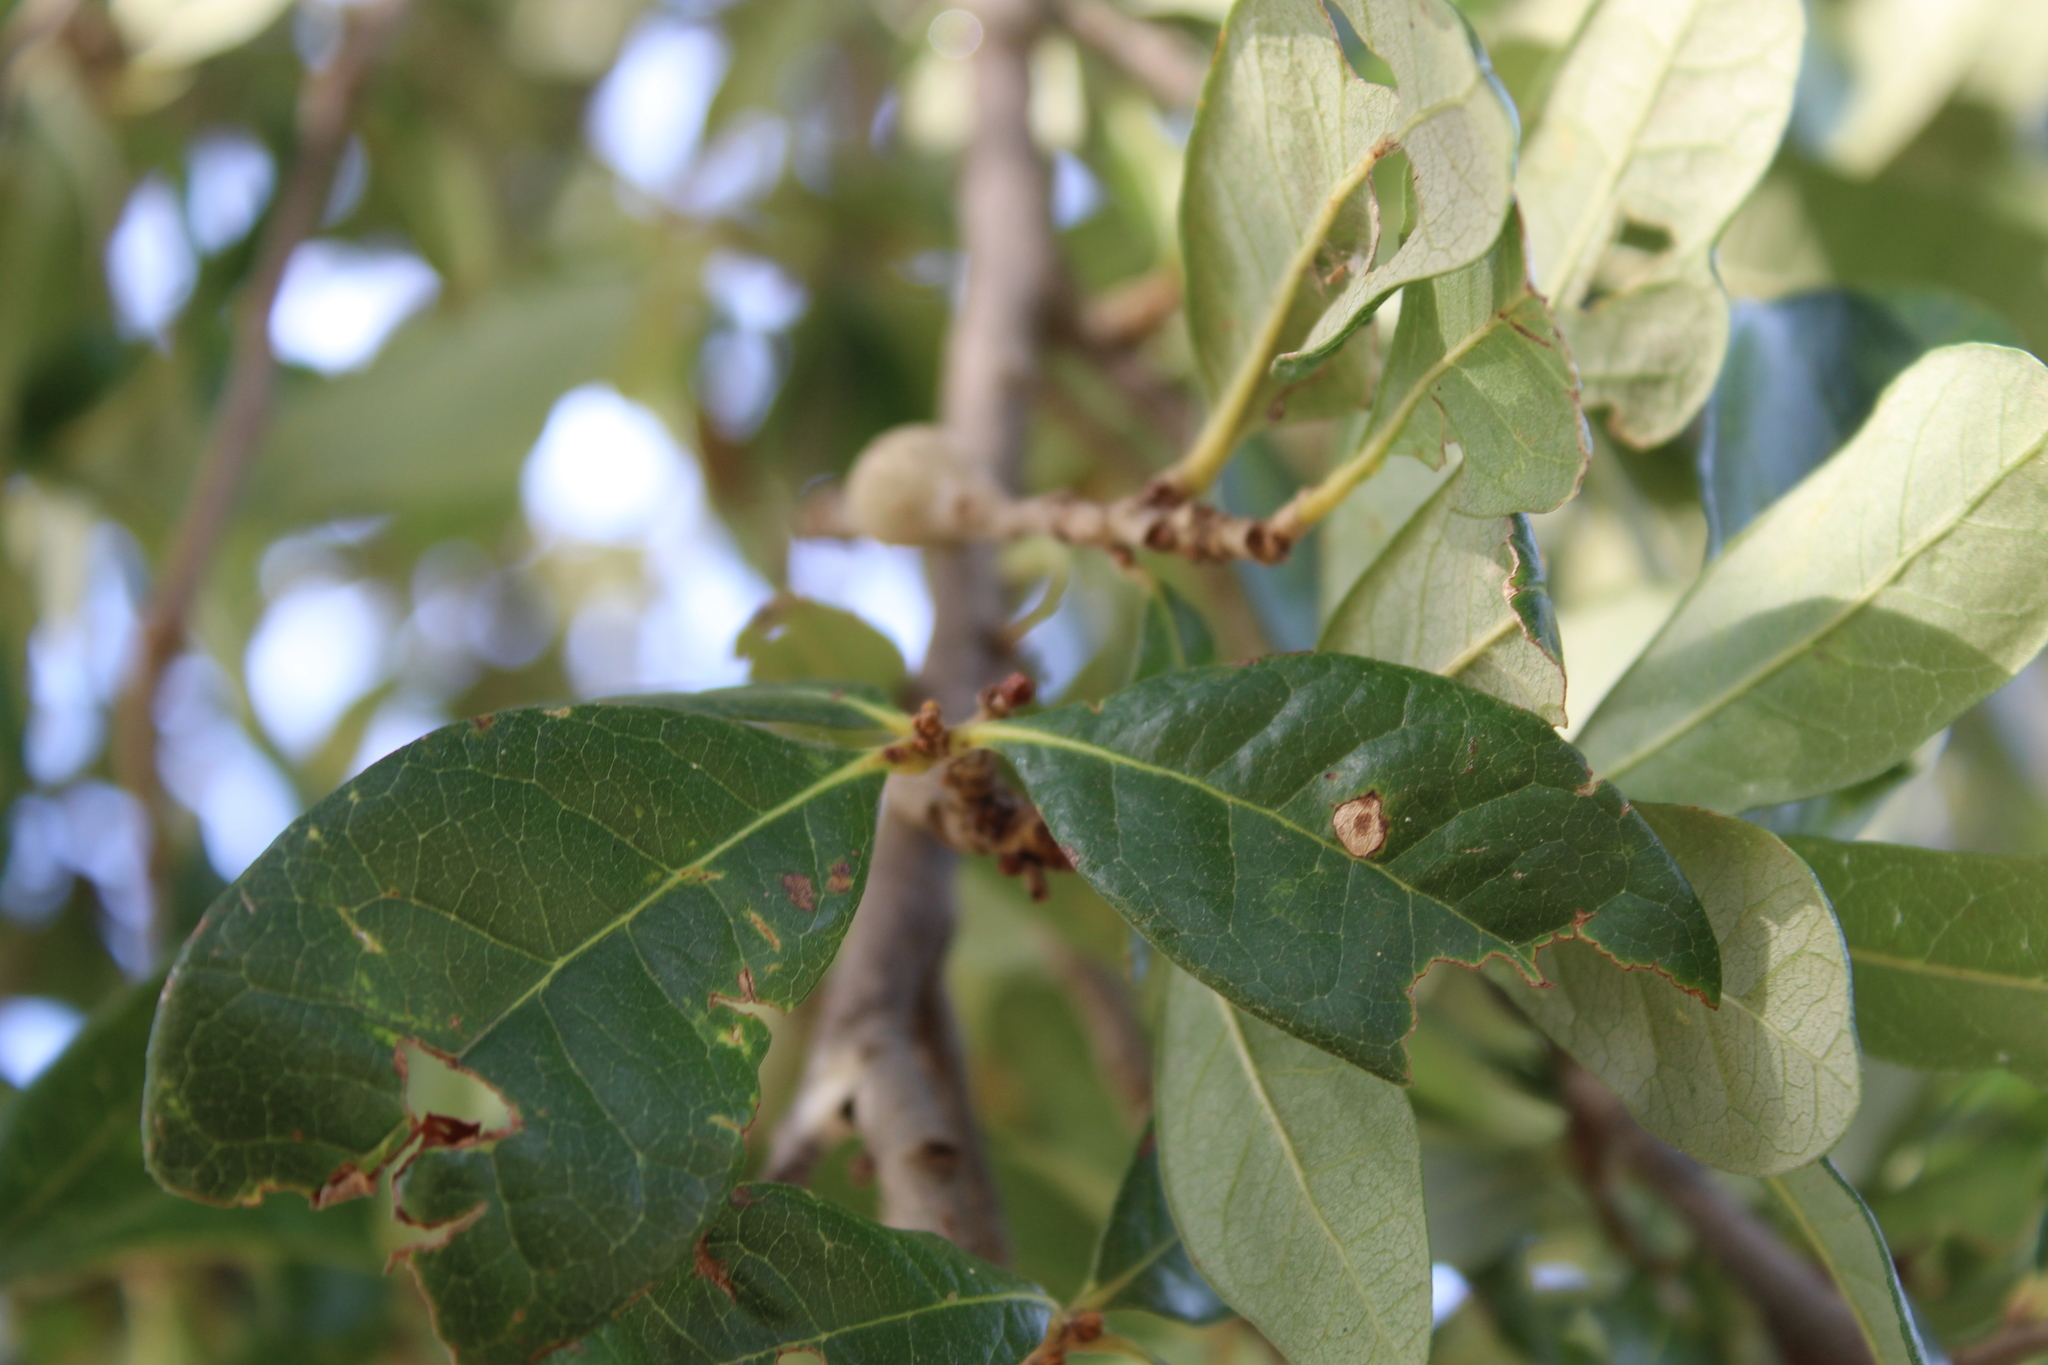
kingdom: Animalia
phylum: Arthropoda
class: Insecta
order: Hymenoptera
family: Cynipidae
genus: Callirhytis
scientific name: Callirhytis
